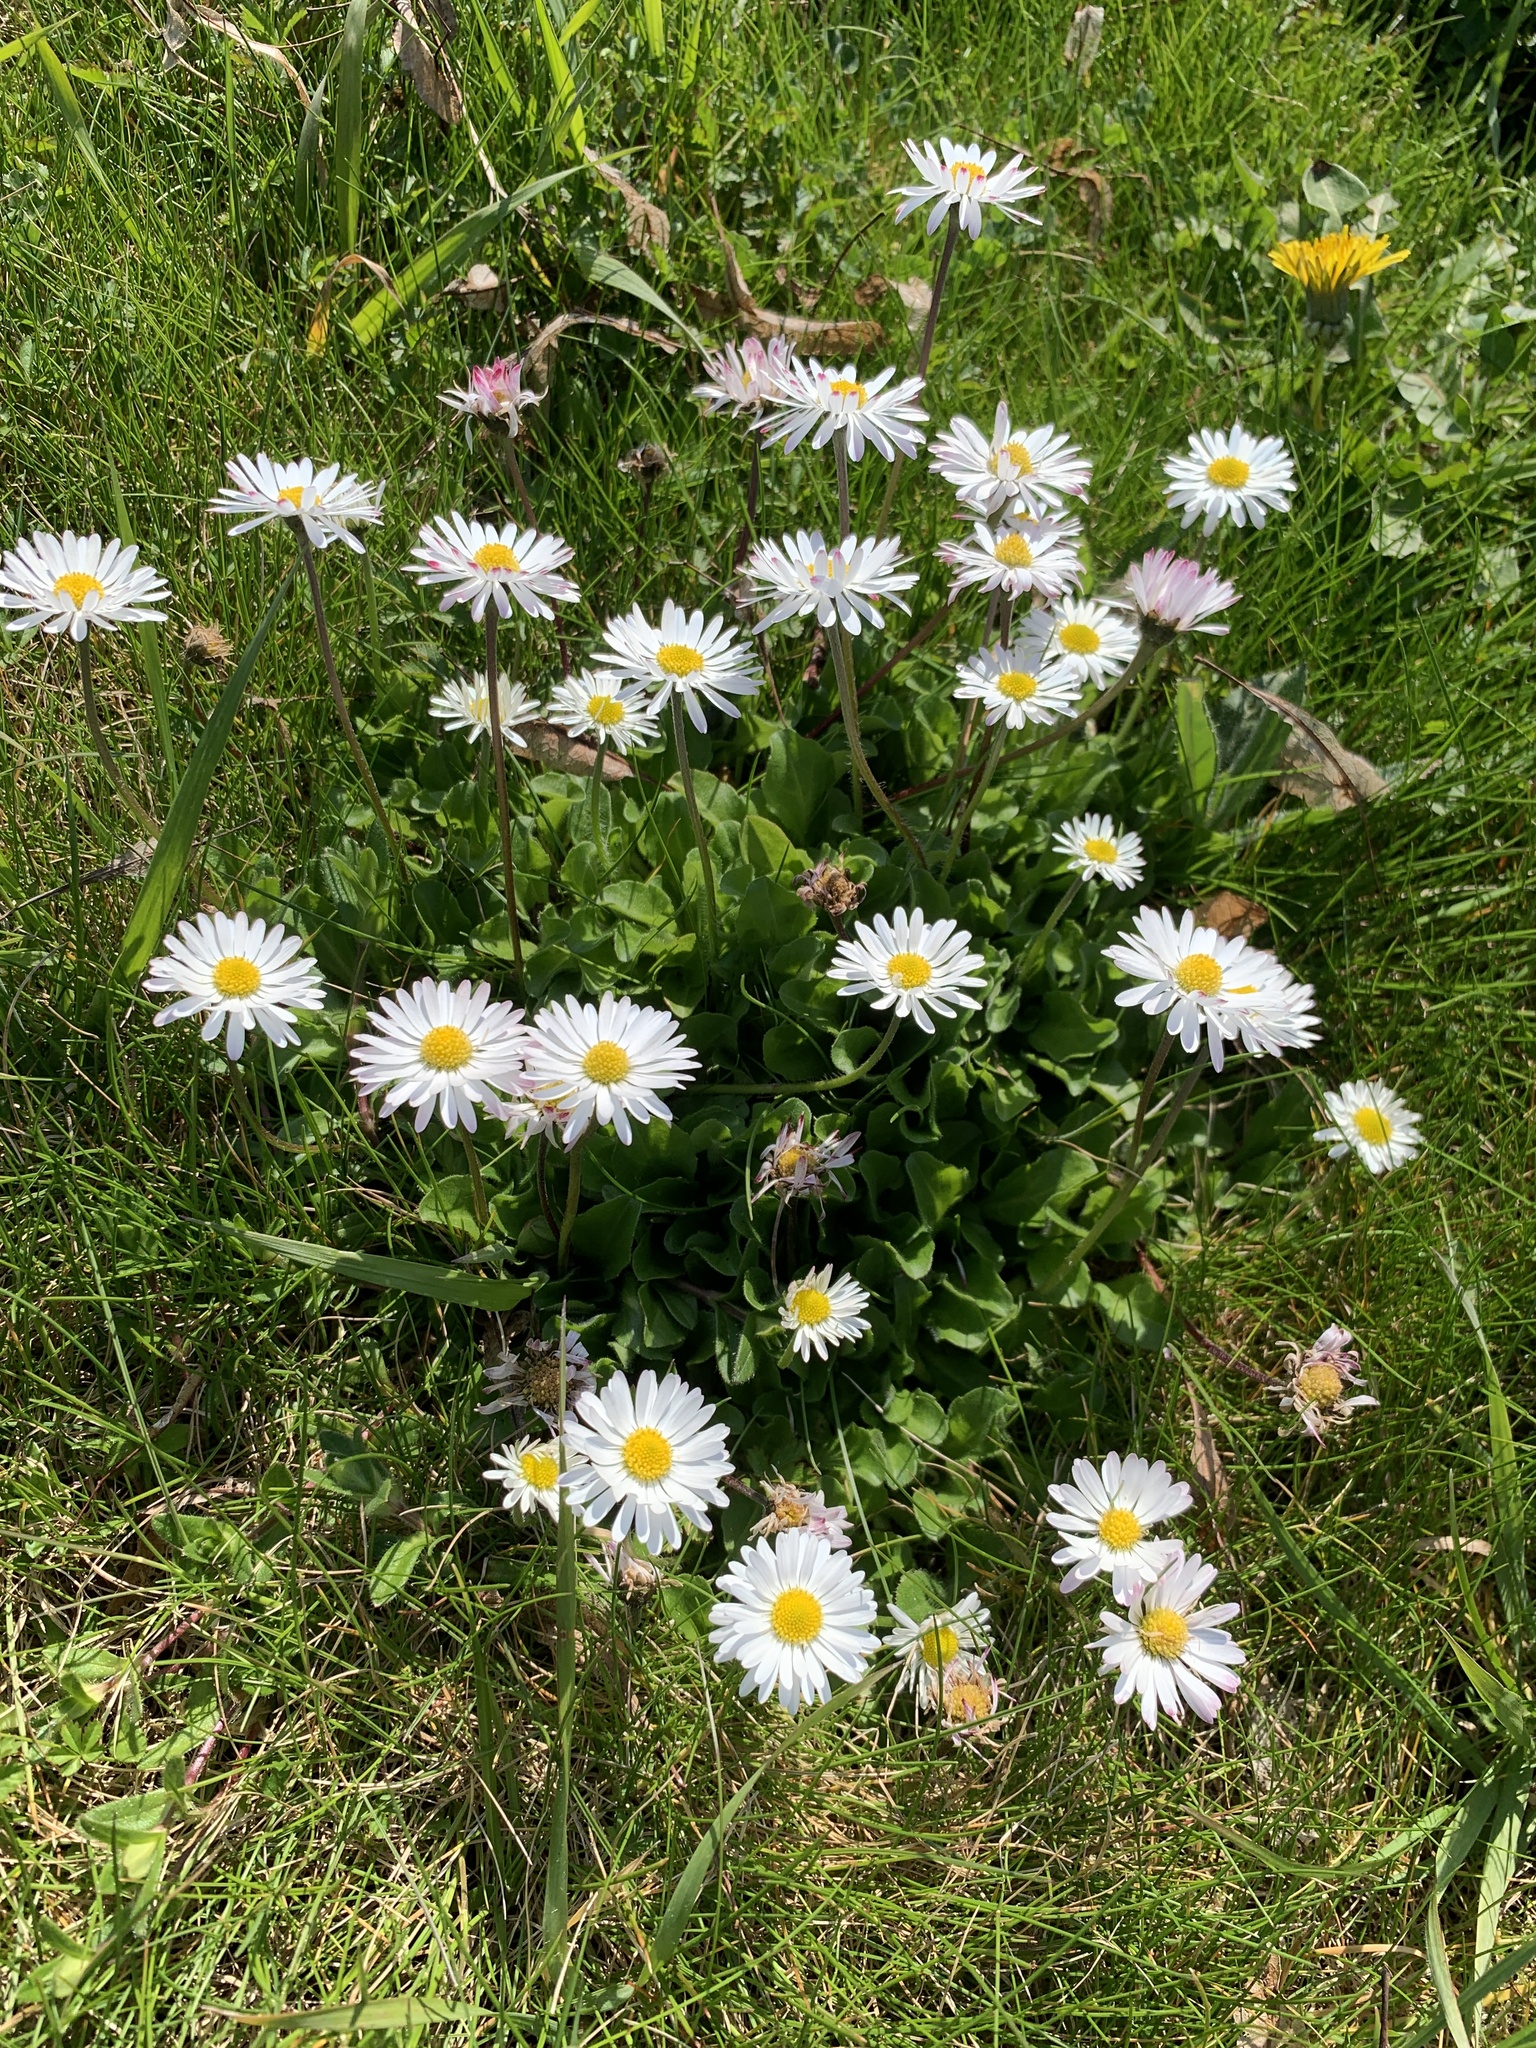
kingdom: Plantae
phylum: Tracheophyta
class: Magnoliopsida
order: Asterales
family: Asteraceae
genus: Bellis
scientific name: Bellis perennis
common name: Lawndaisy
